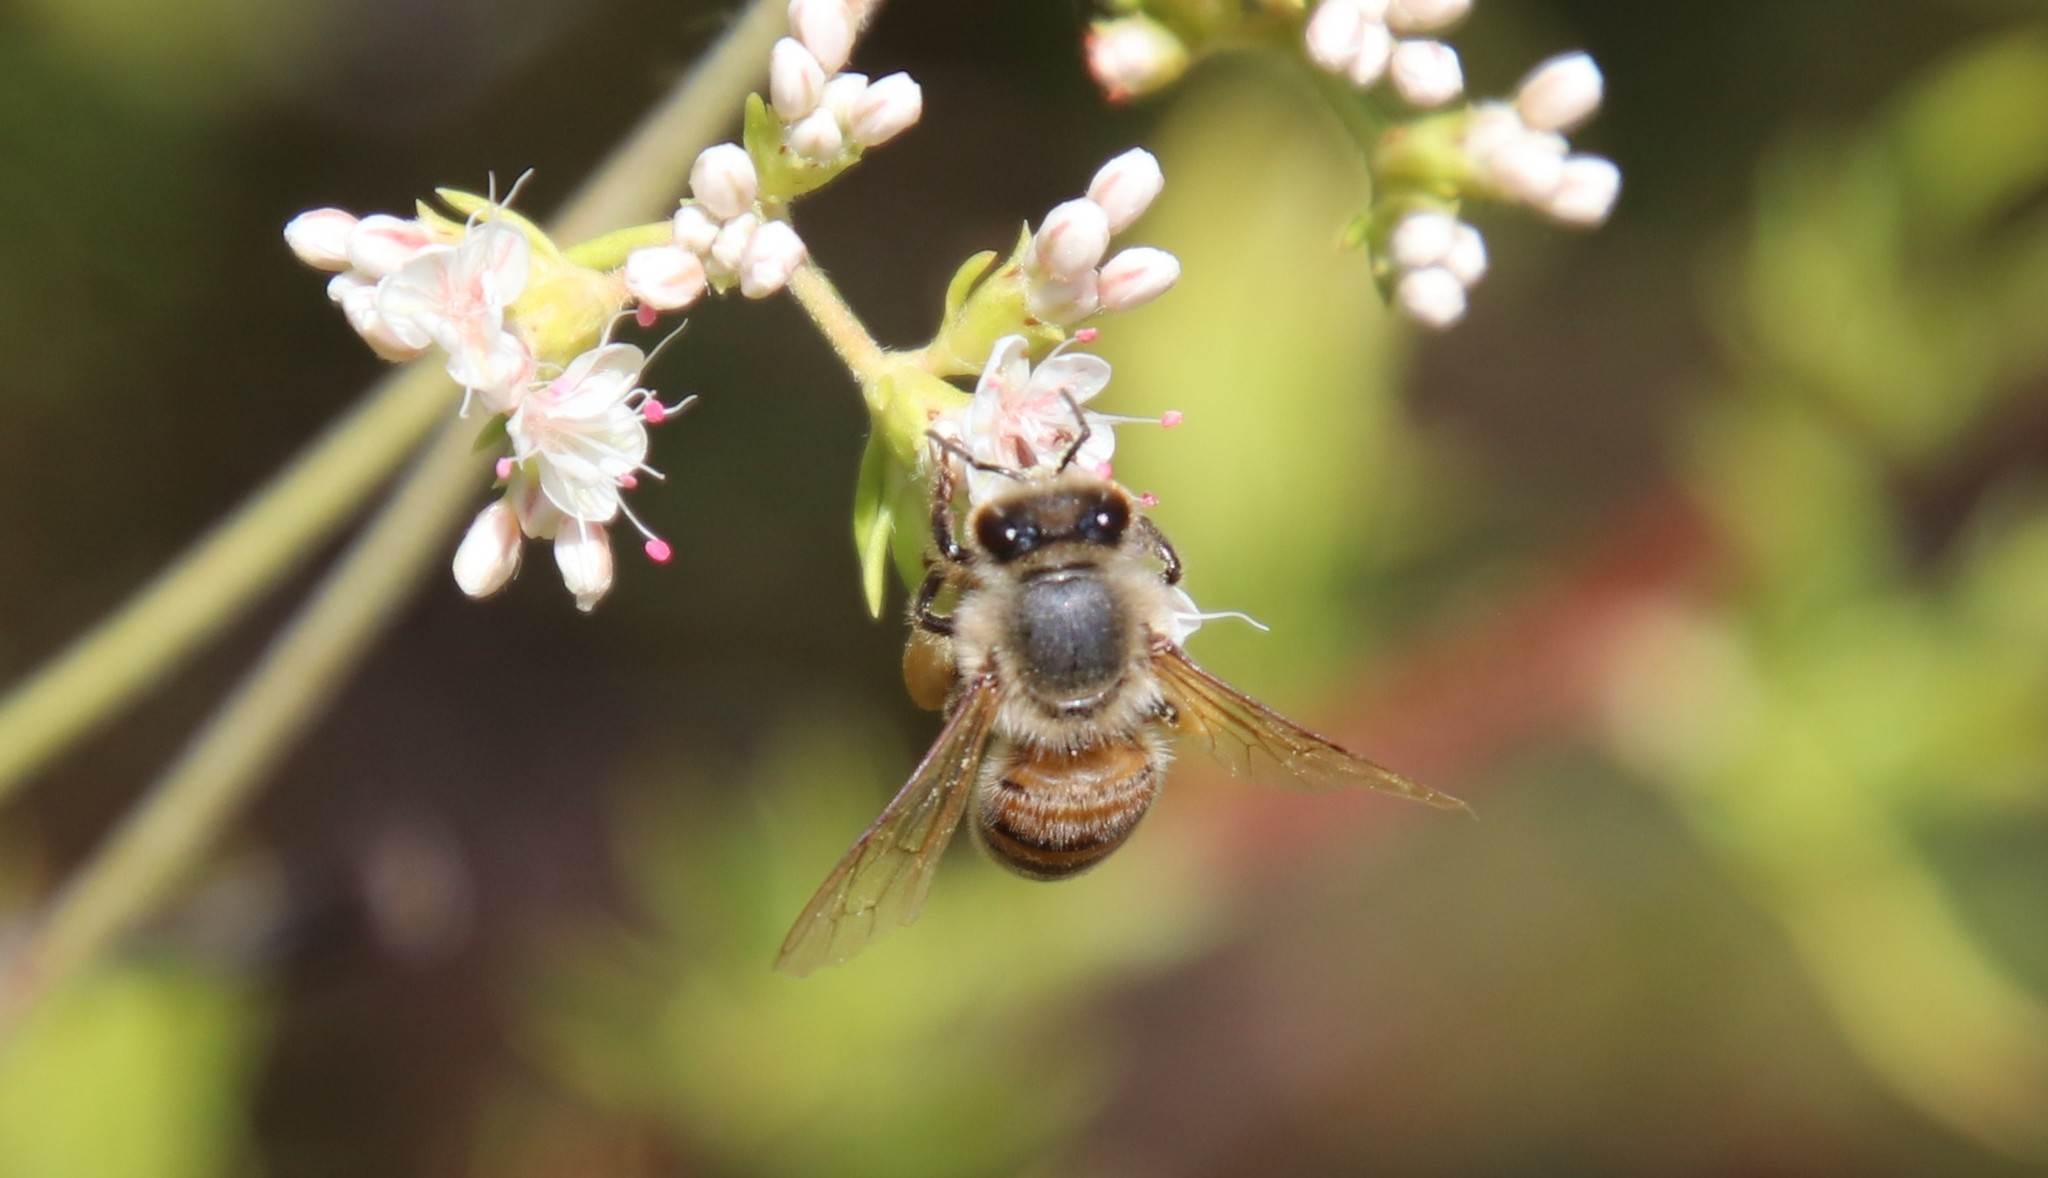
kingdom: Animalia
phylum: Arthropoda
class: Insecta
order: Hymenoptera
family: Apidae
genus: Apis
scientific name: Apis mellifera
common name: Honey bee
